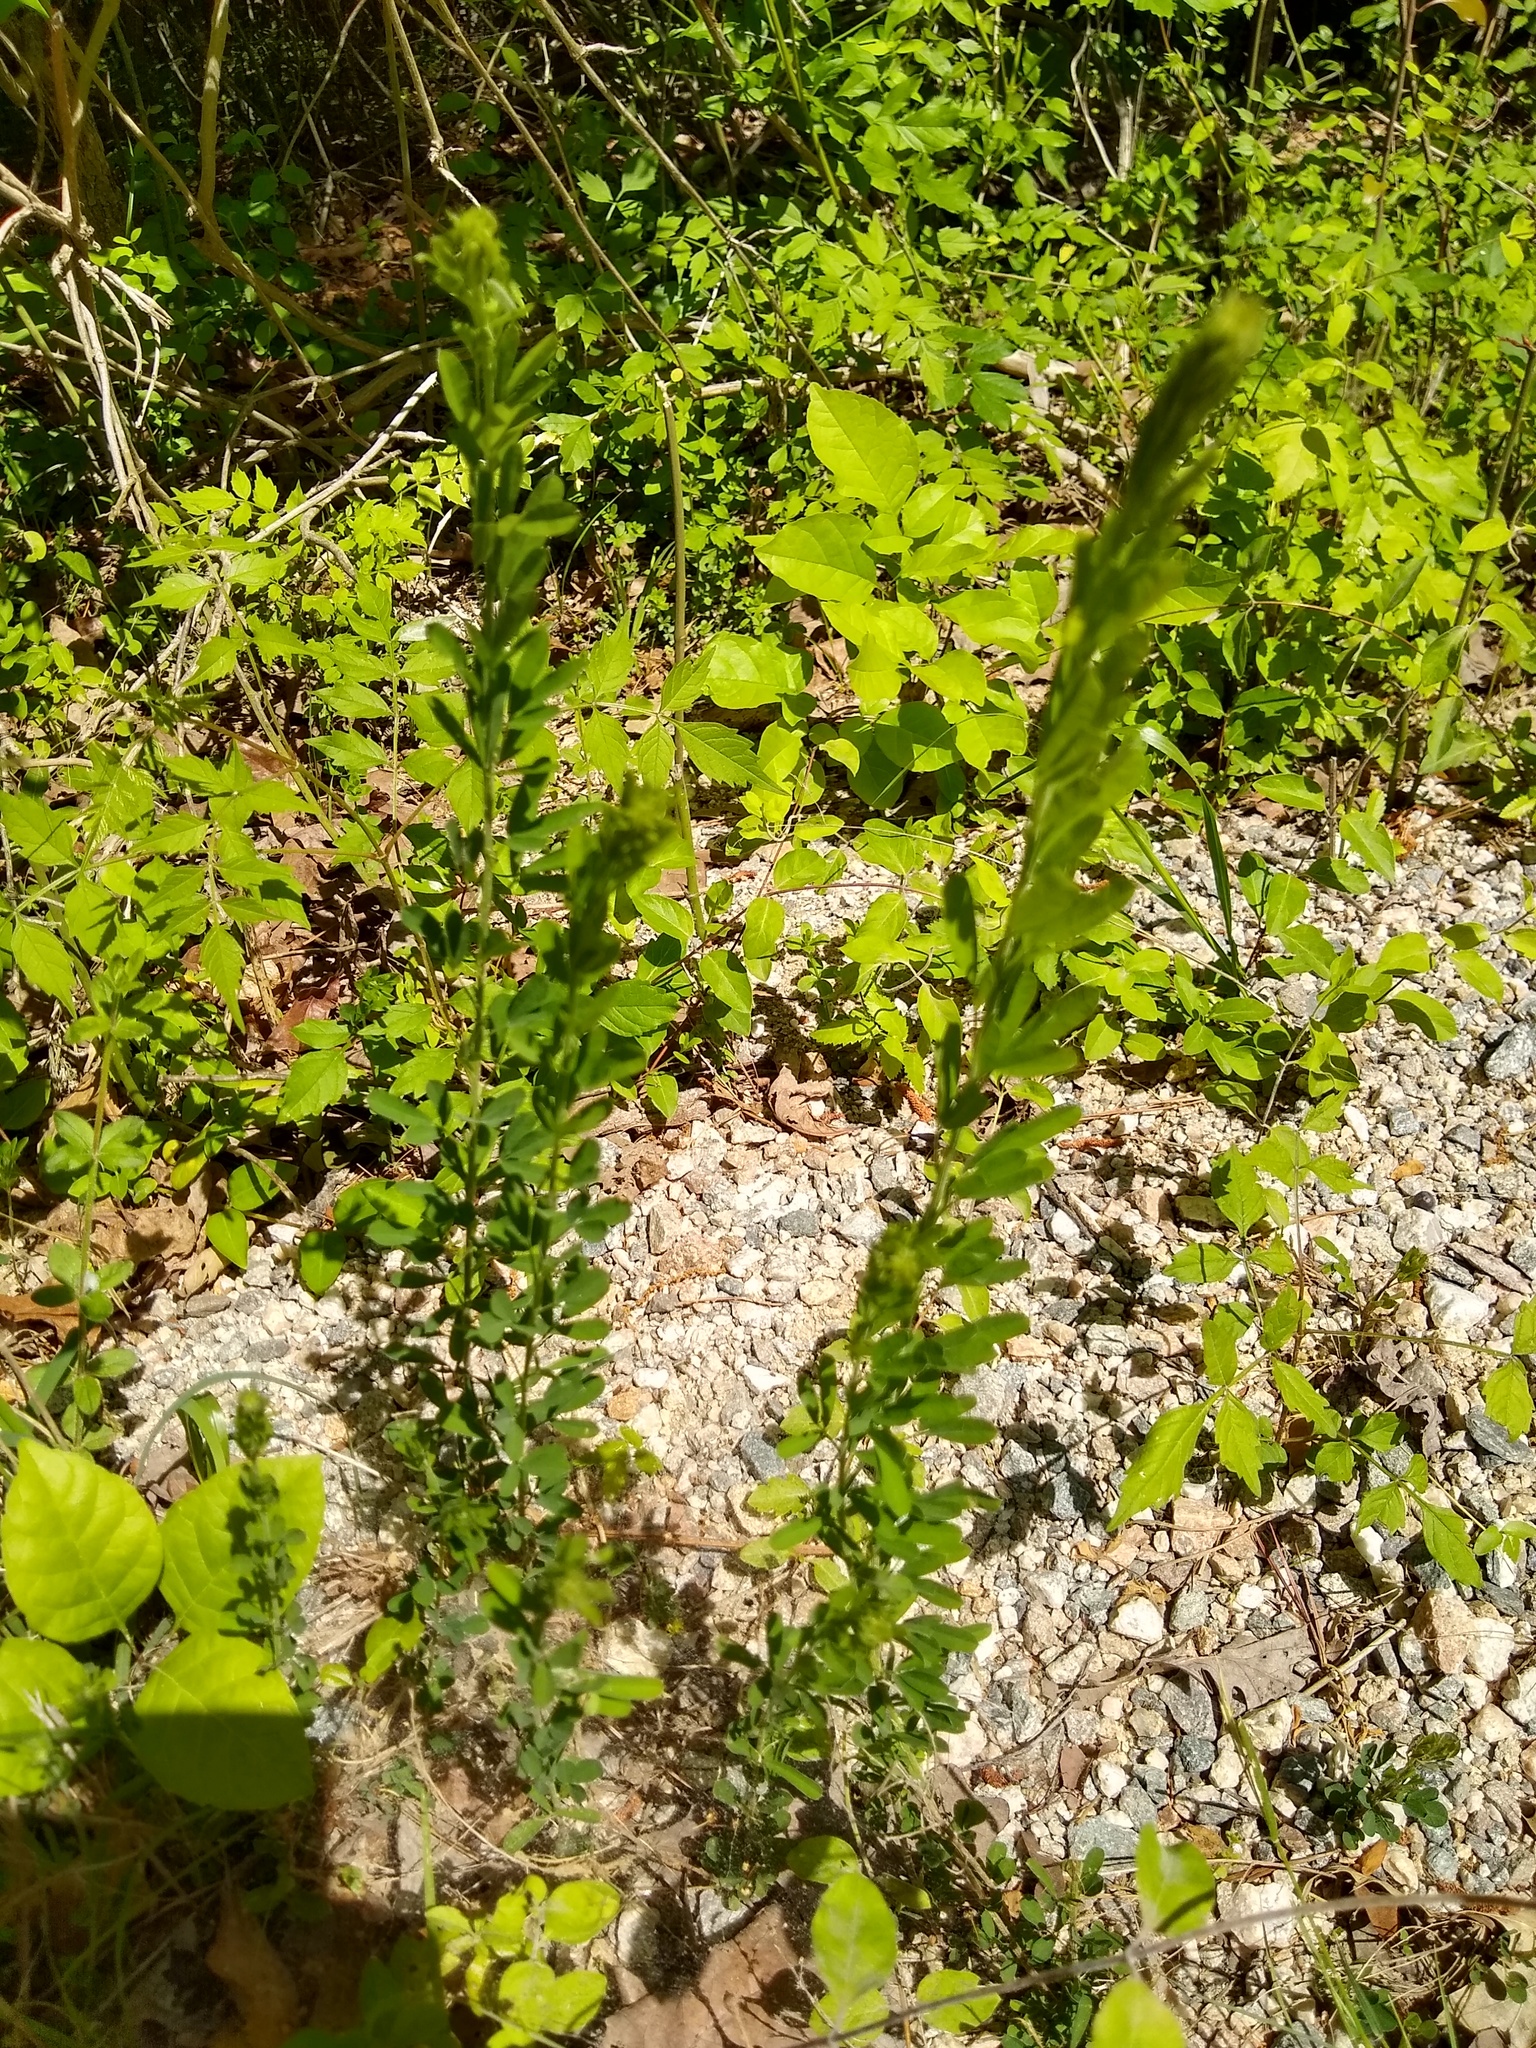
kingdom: Plantae
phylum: Tracheophyta
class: Magnoliopsida
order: Fabales
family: Fabaceae
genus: Lespedeza
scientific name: Lespedeza cuneata
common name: Chinese bush-clover
